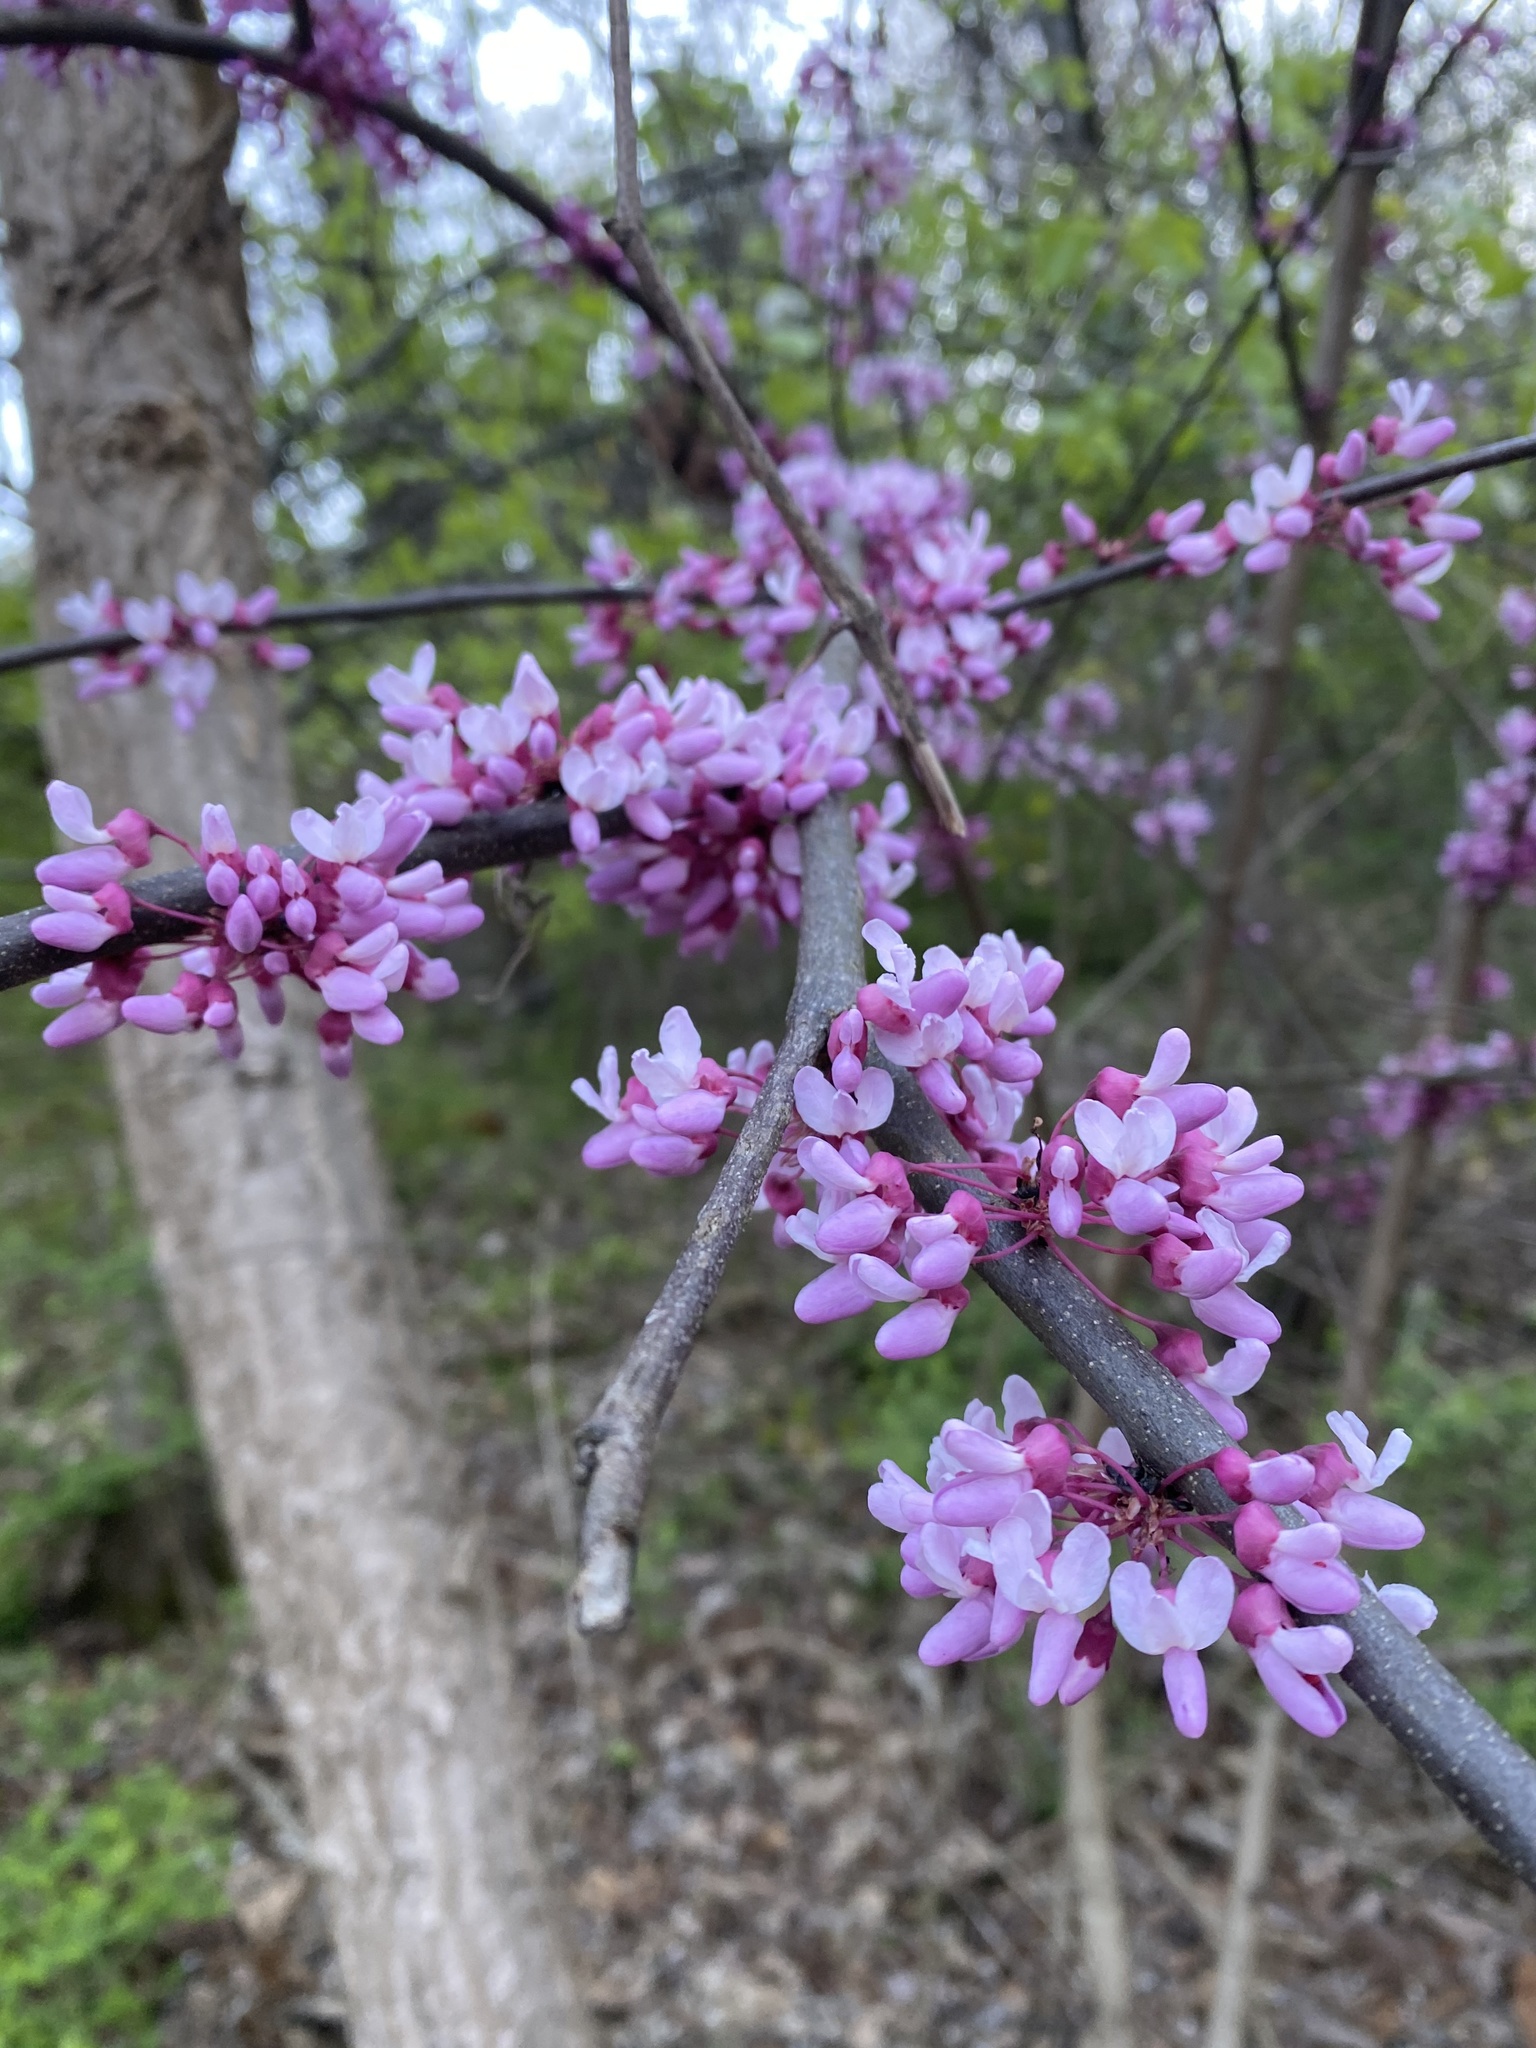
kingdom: Plantae
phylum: Tracheophyta
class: Magnoliopsida
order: Fabales
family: Fabaceae
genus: Cercis
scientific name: Cercis canadensis
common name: Eastern redbud
